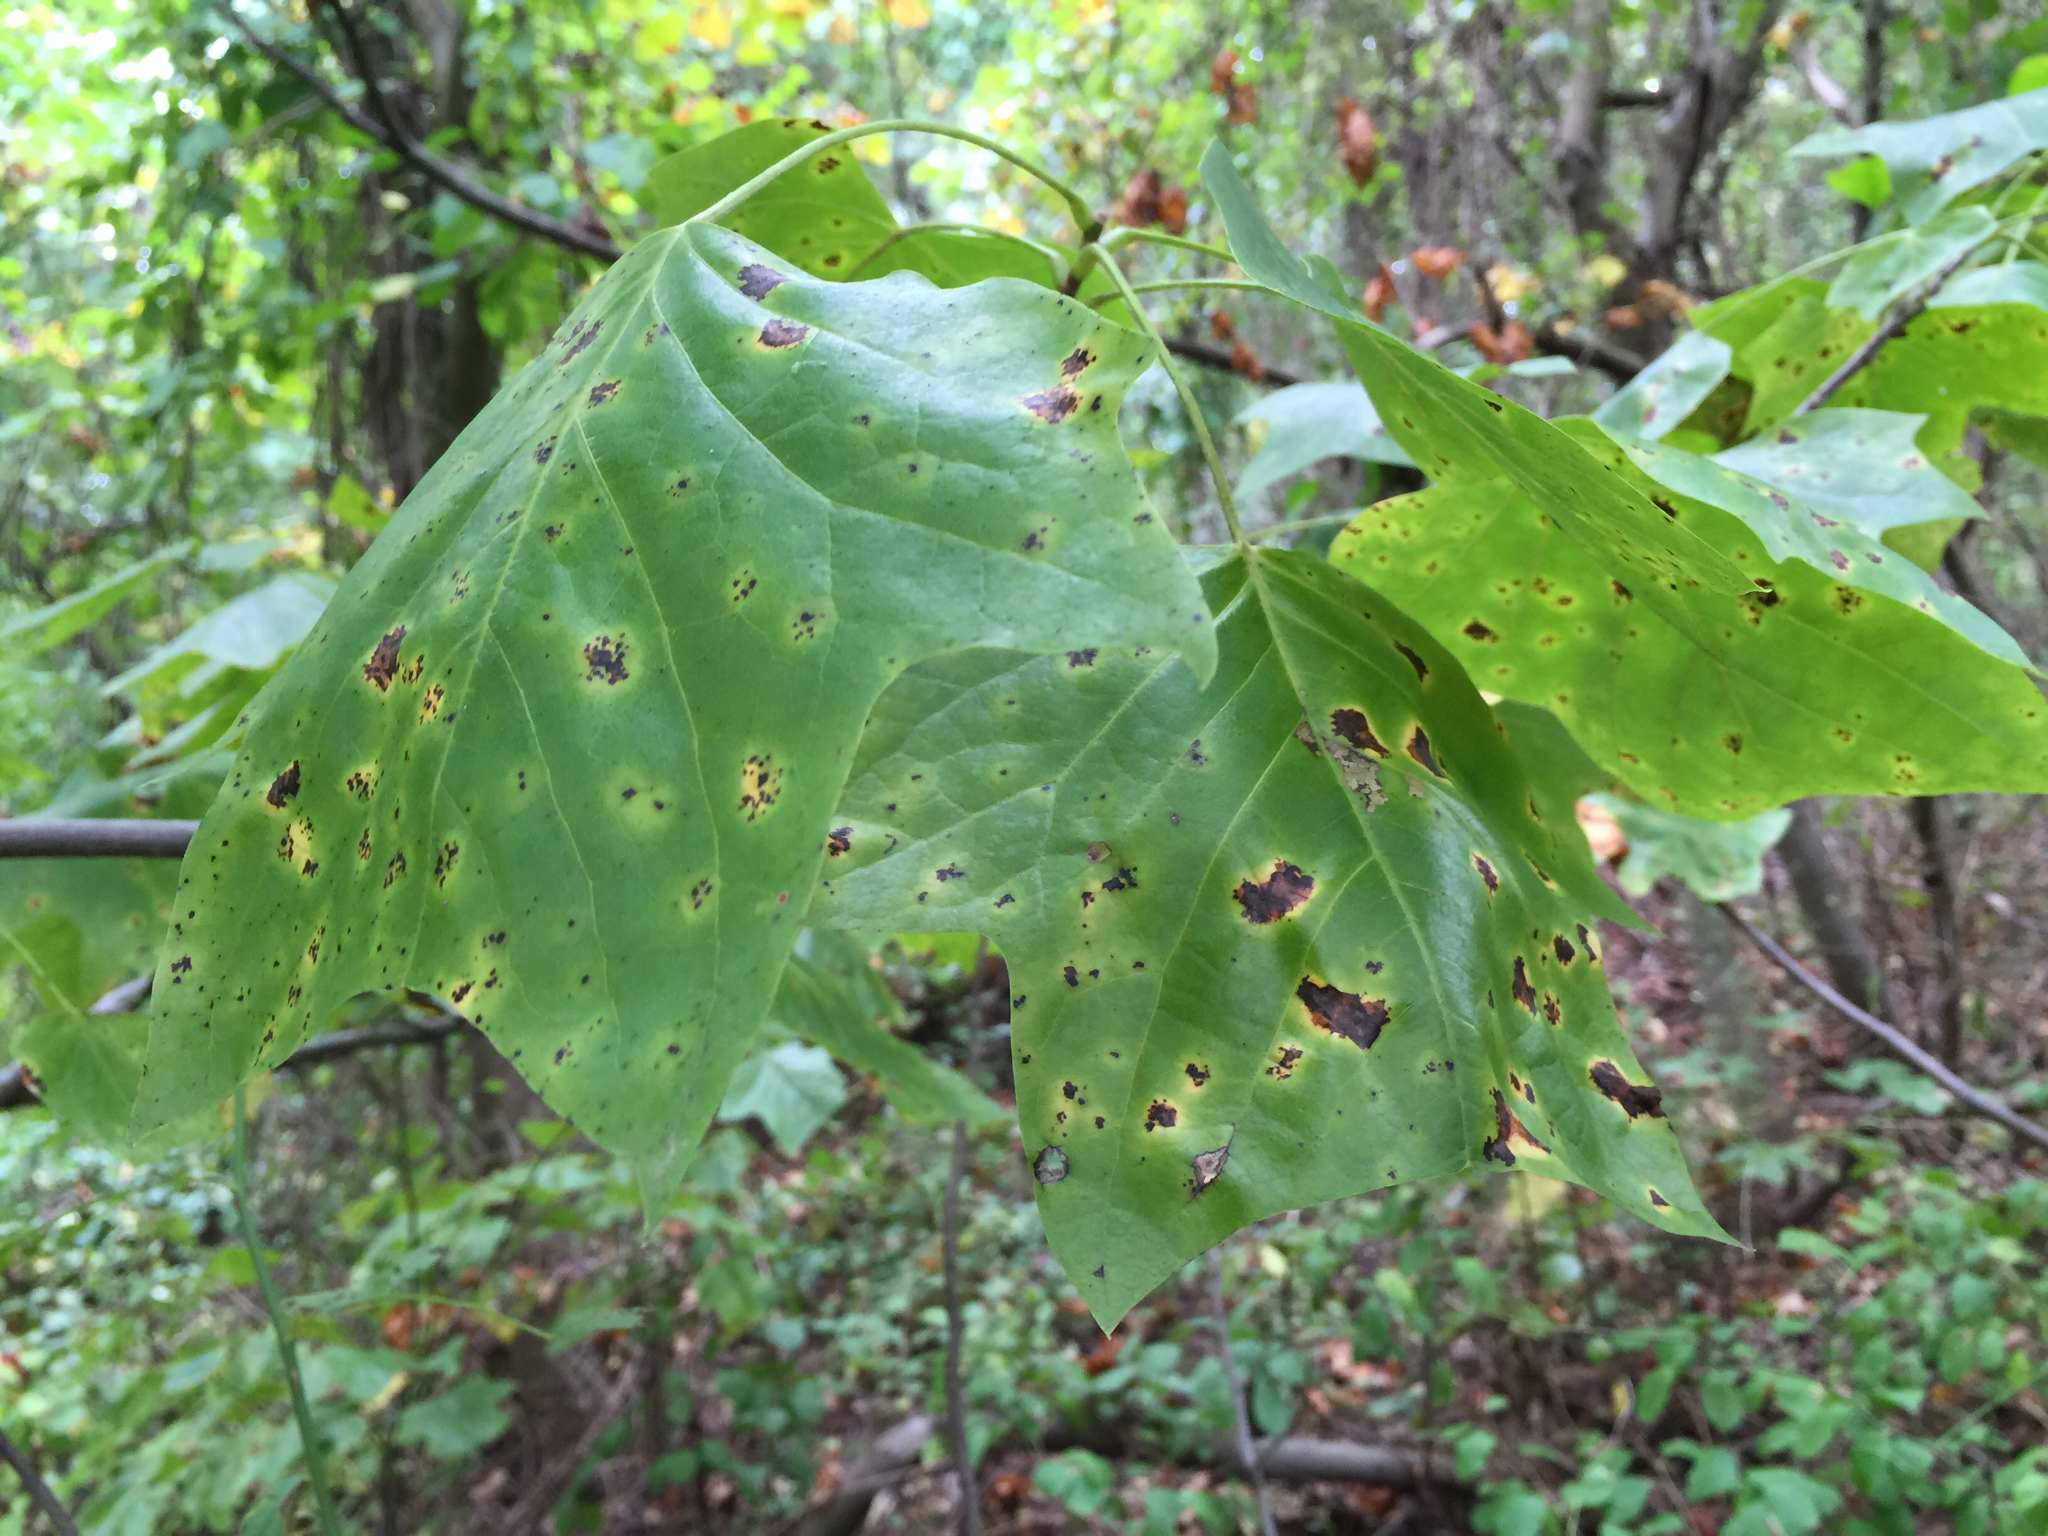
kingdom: Plantae
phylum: Tracheophyta
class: Magnoliopsida
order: Magnoliales
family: Magnoliaceae
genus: Liriodendron
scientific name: Liriodendron tulipifera
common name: Tulip tree
